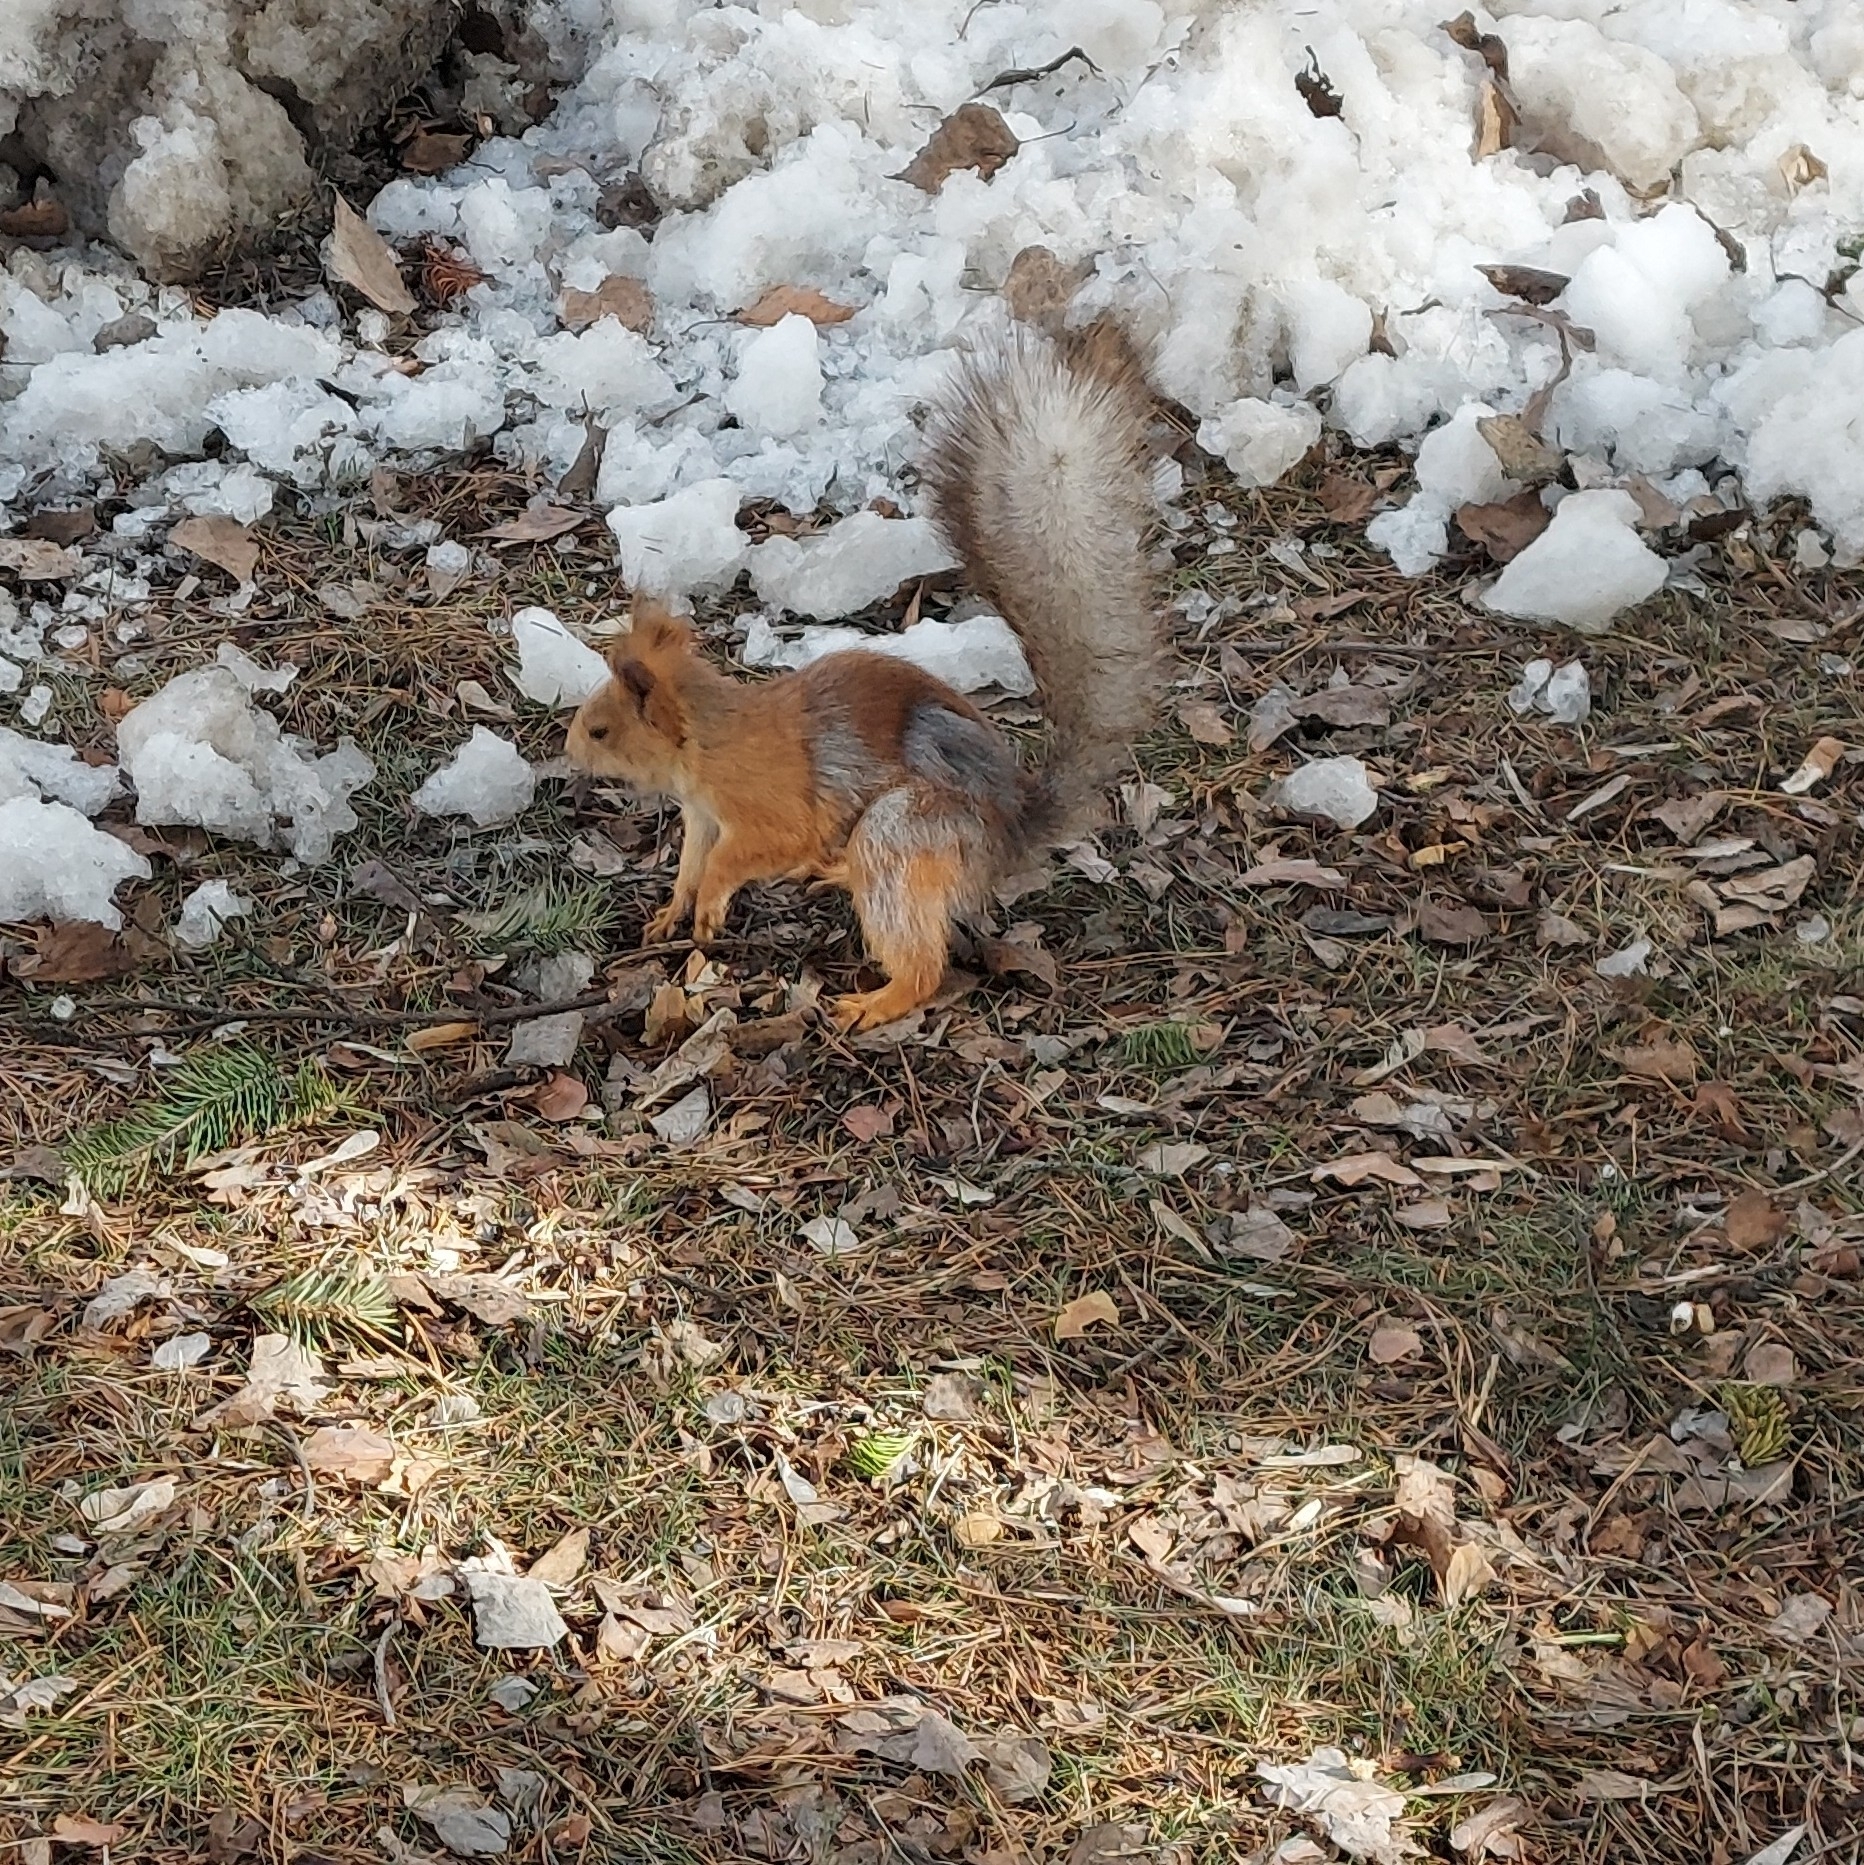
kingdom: Animalia
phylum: Chordata
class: Mammalia
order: Rodentia
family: Sciuridae
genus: Sciurus
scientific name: Sciurus vulgaris
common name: Eurasian red squirrel
